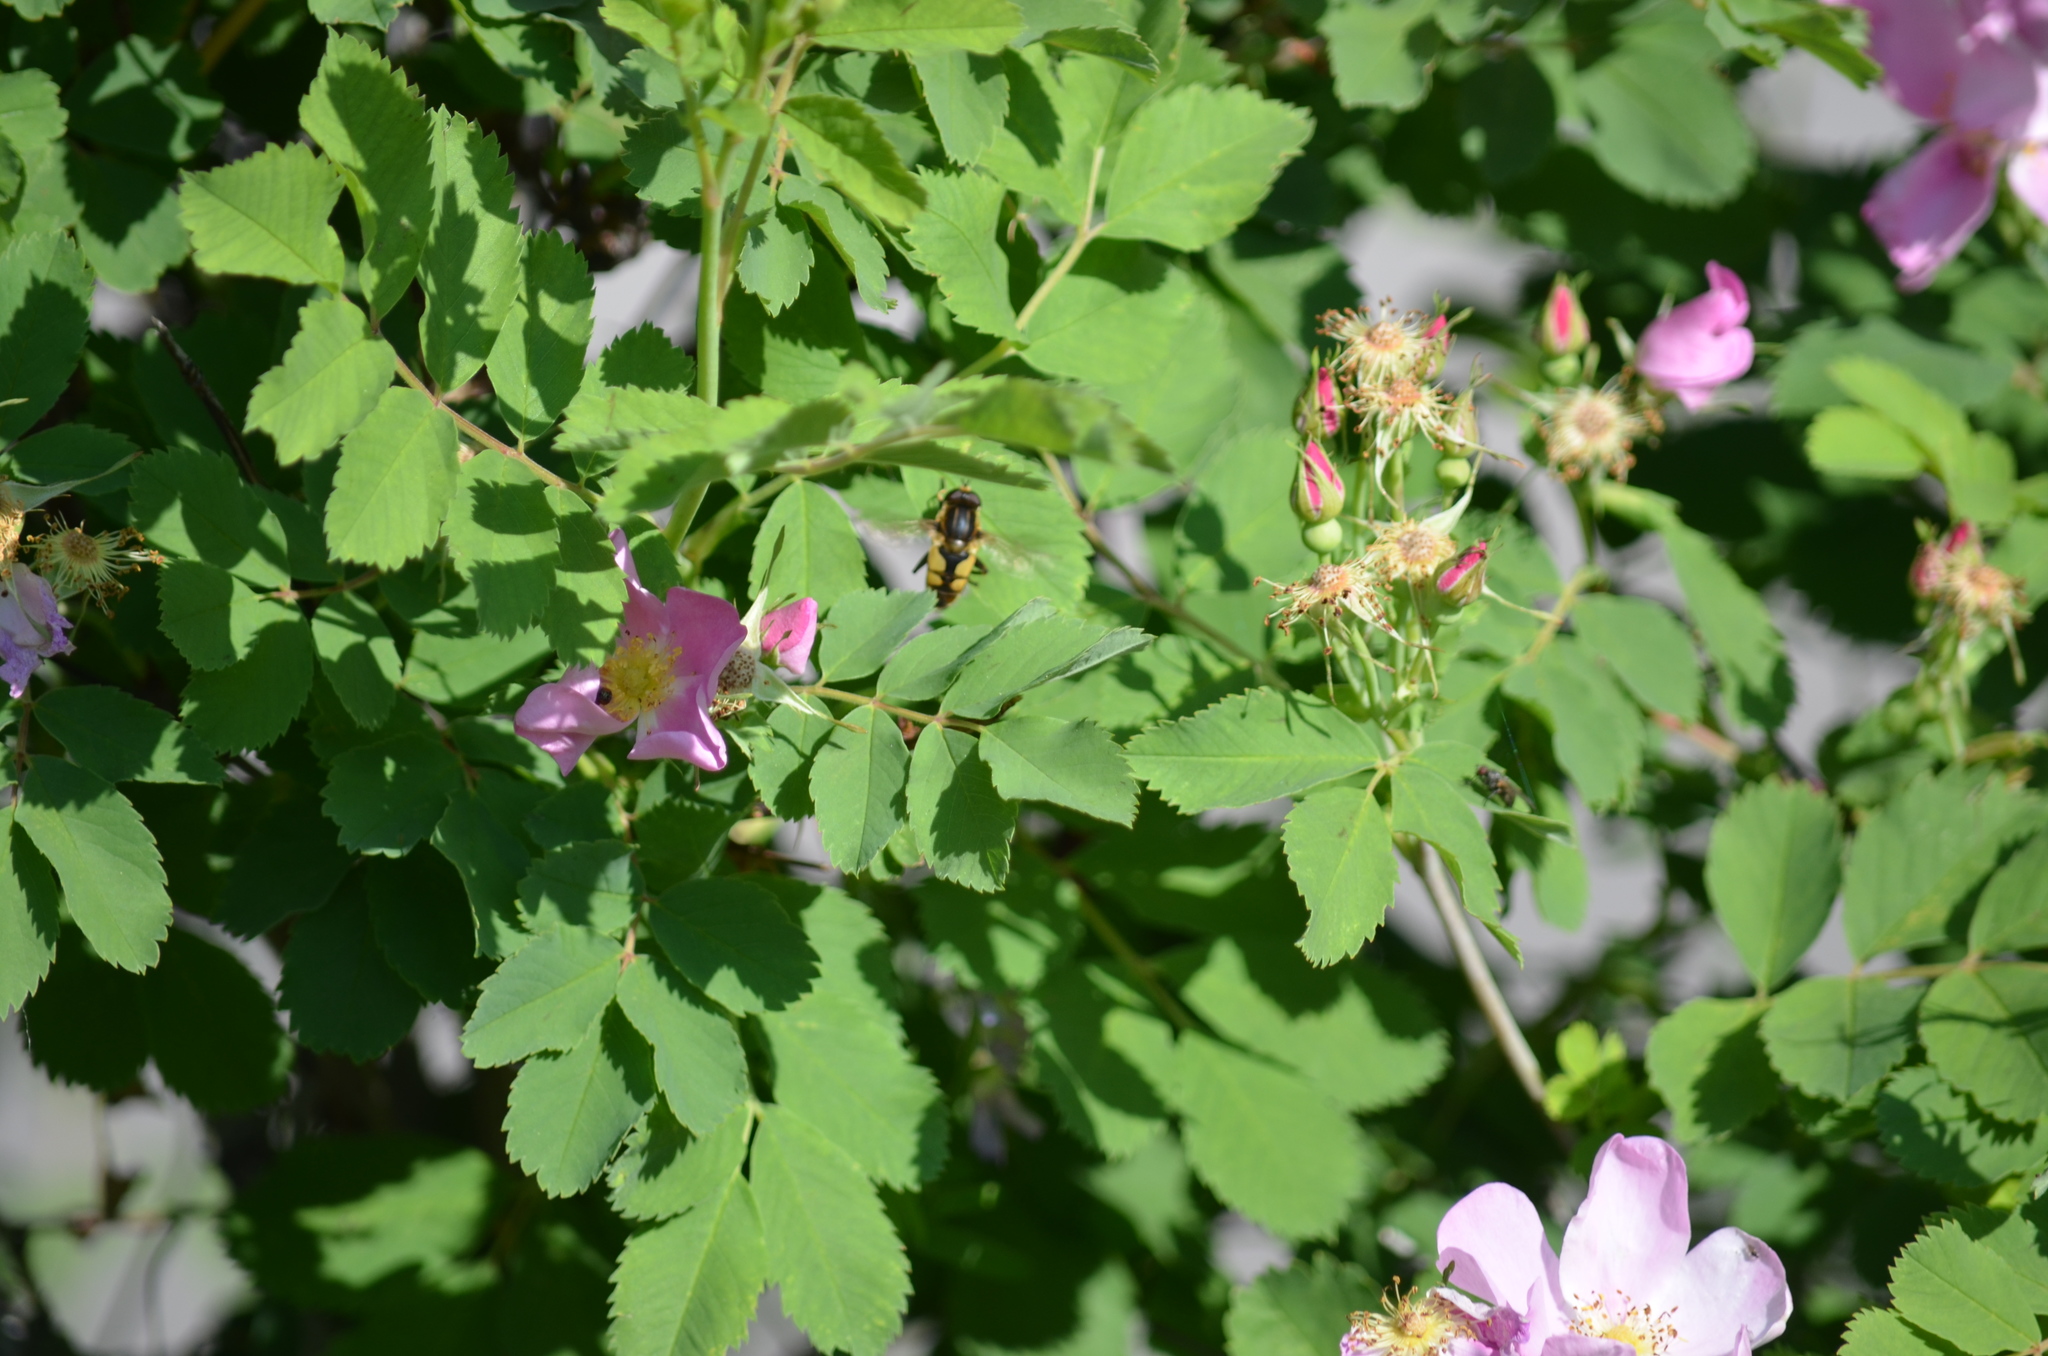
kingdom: Animalia
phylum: Arthropoda
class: Insecta
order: Diptera
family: Syrphidae
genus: Helophilus
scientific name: Helophilus hybridus
